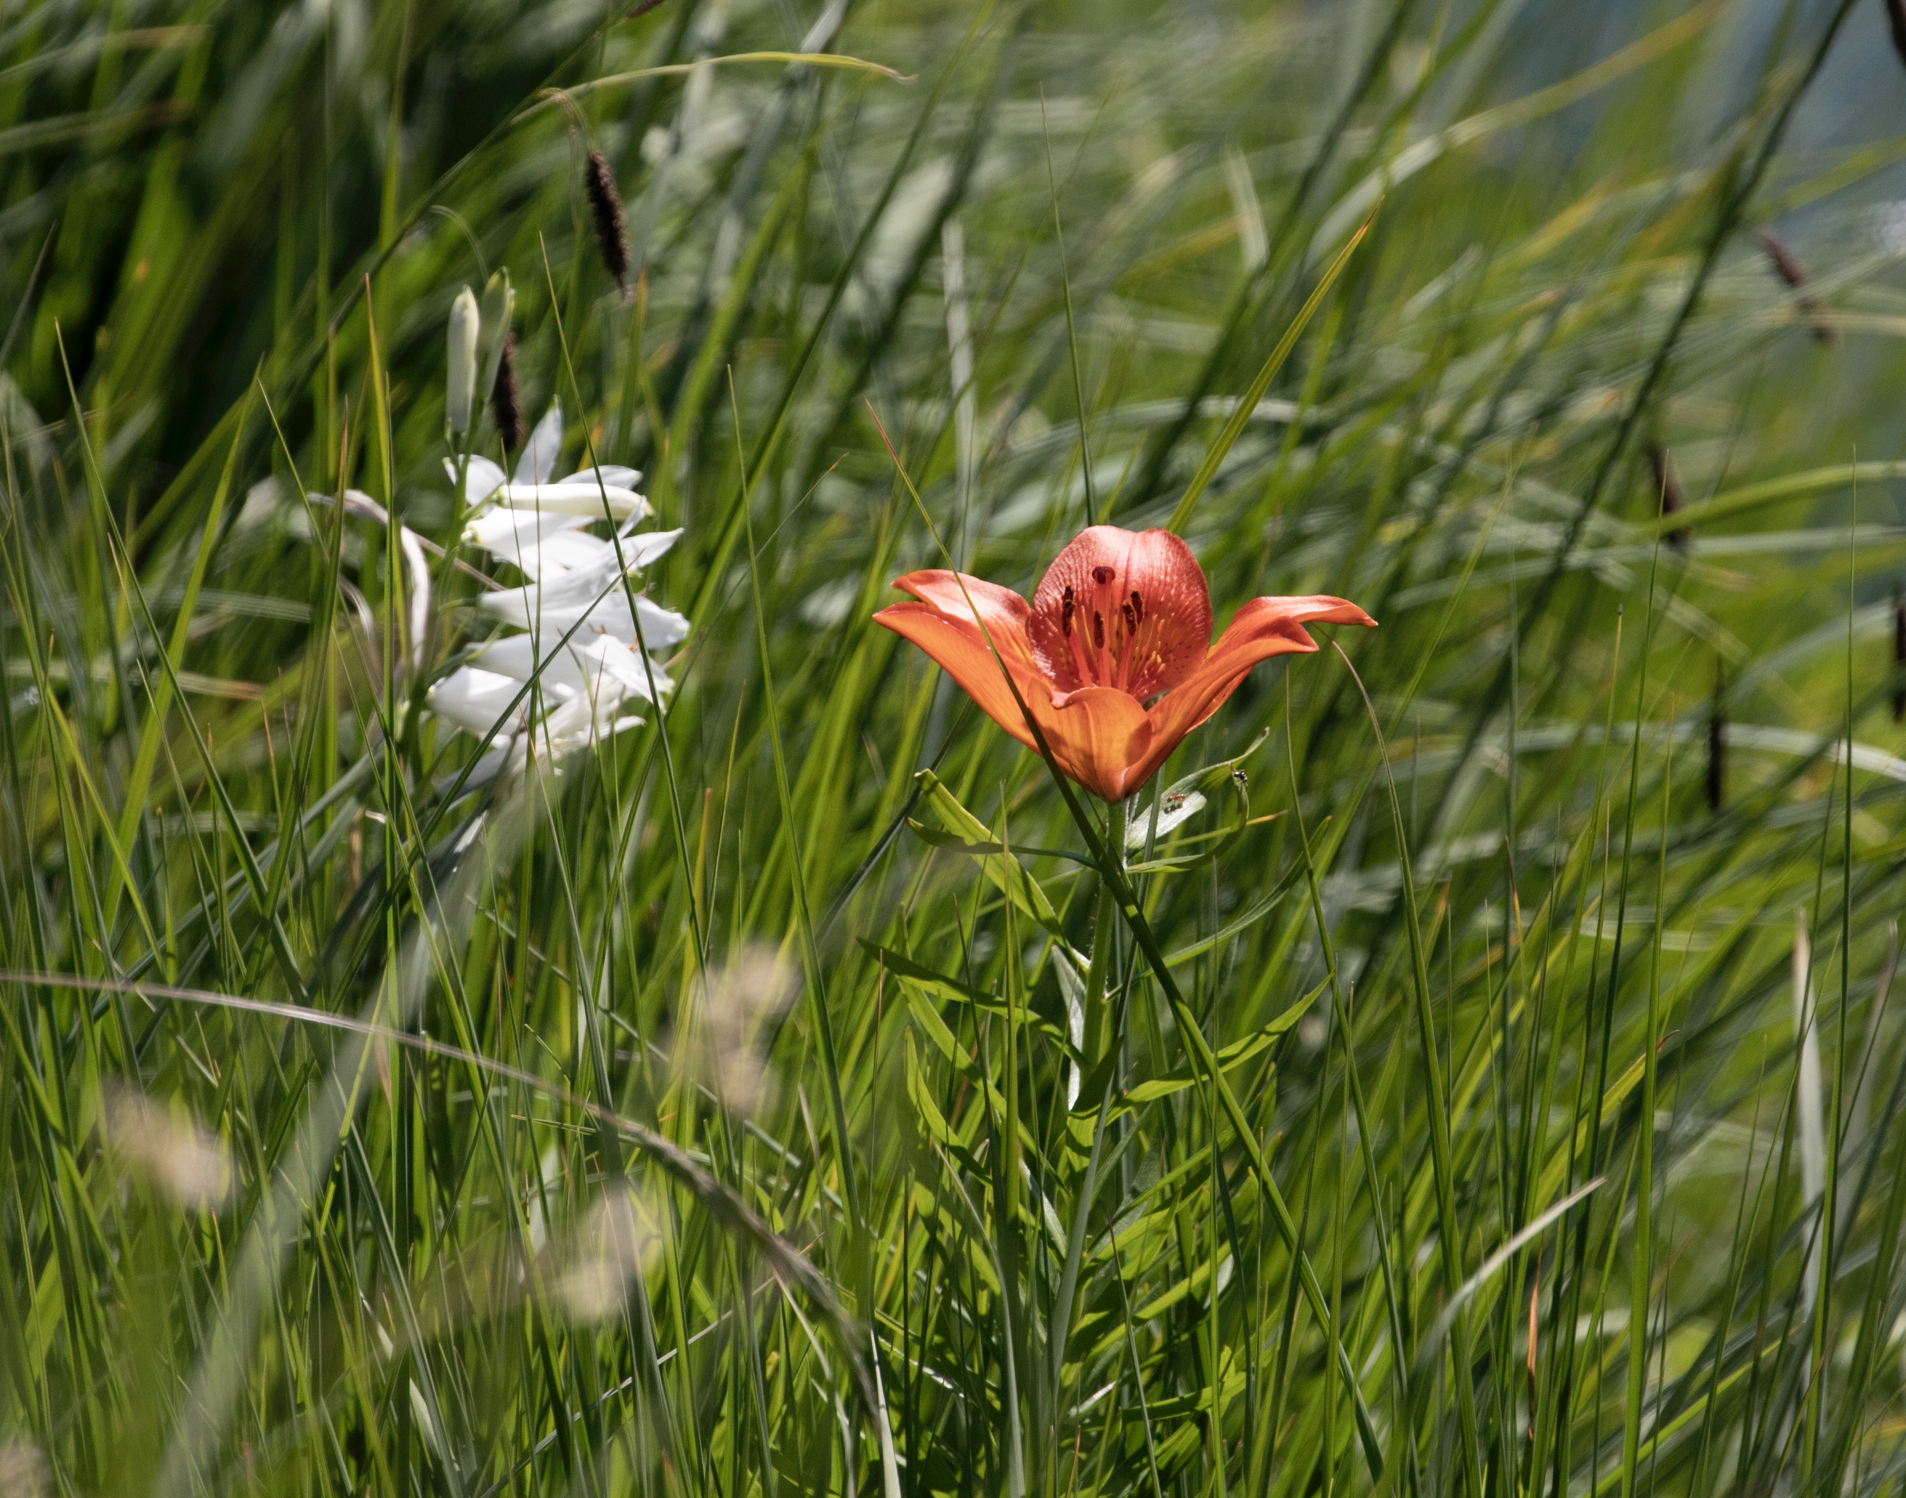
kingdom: Plantae
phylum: Tracheophyta
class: Liliopsida
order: Liliales
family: Liliaceae
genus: Lilium
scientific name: Lilium bulbiferum
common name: Orange lily
